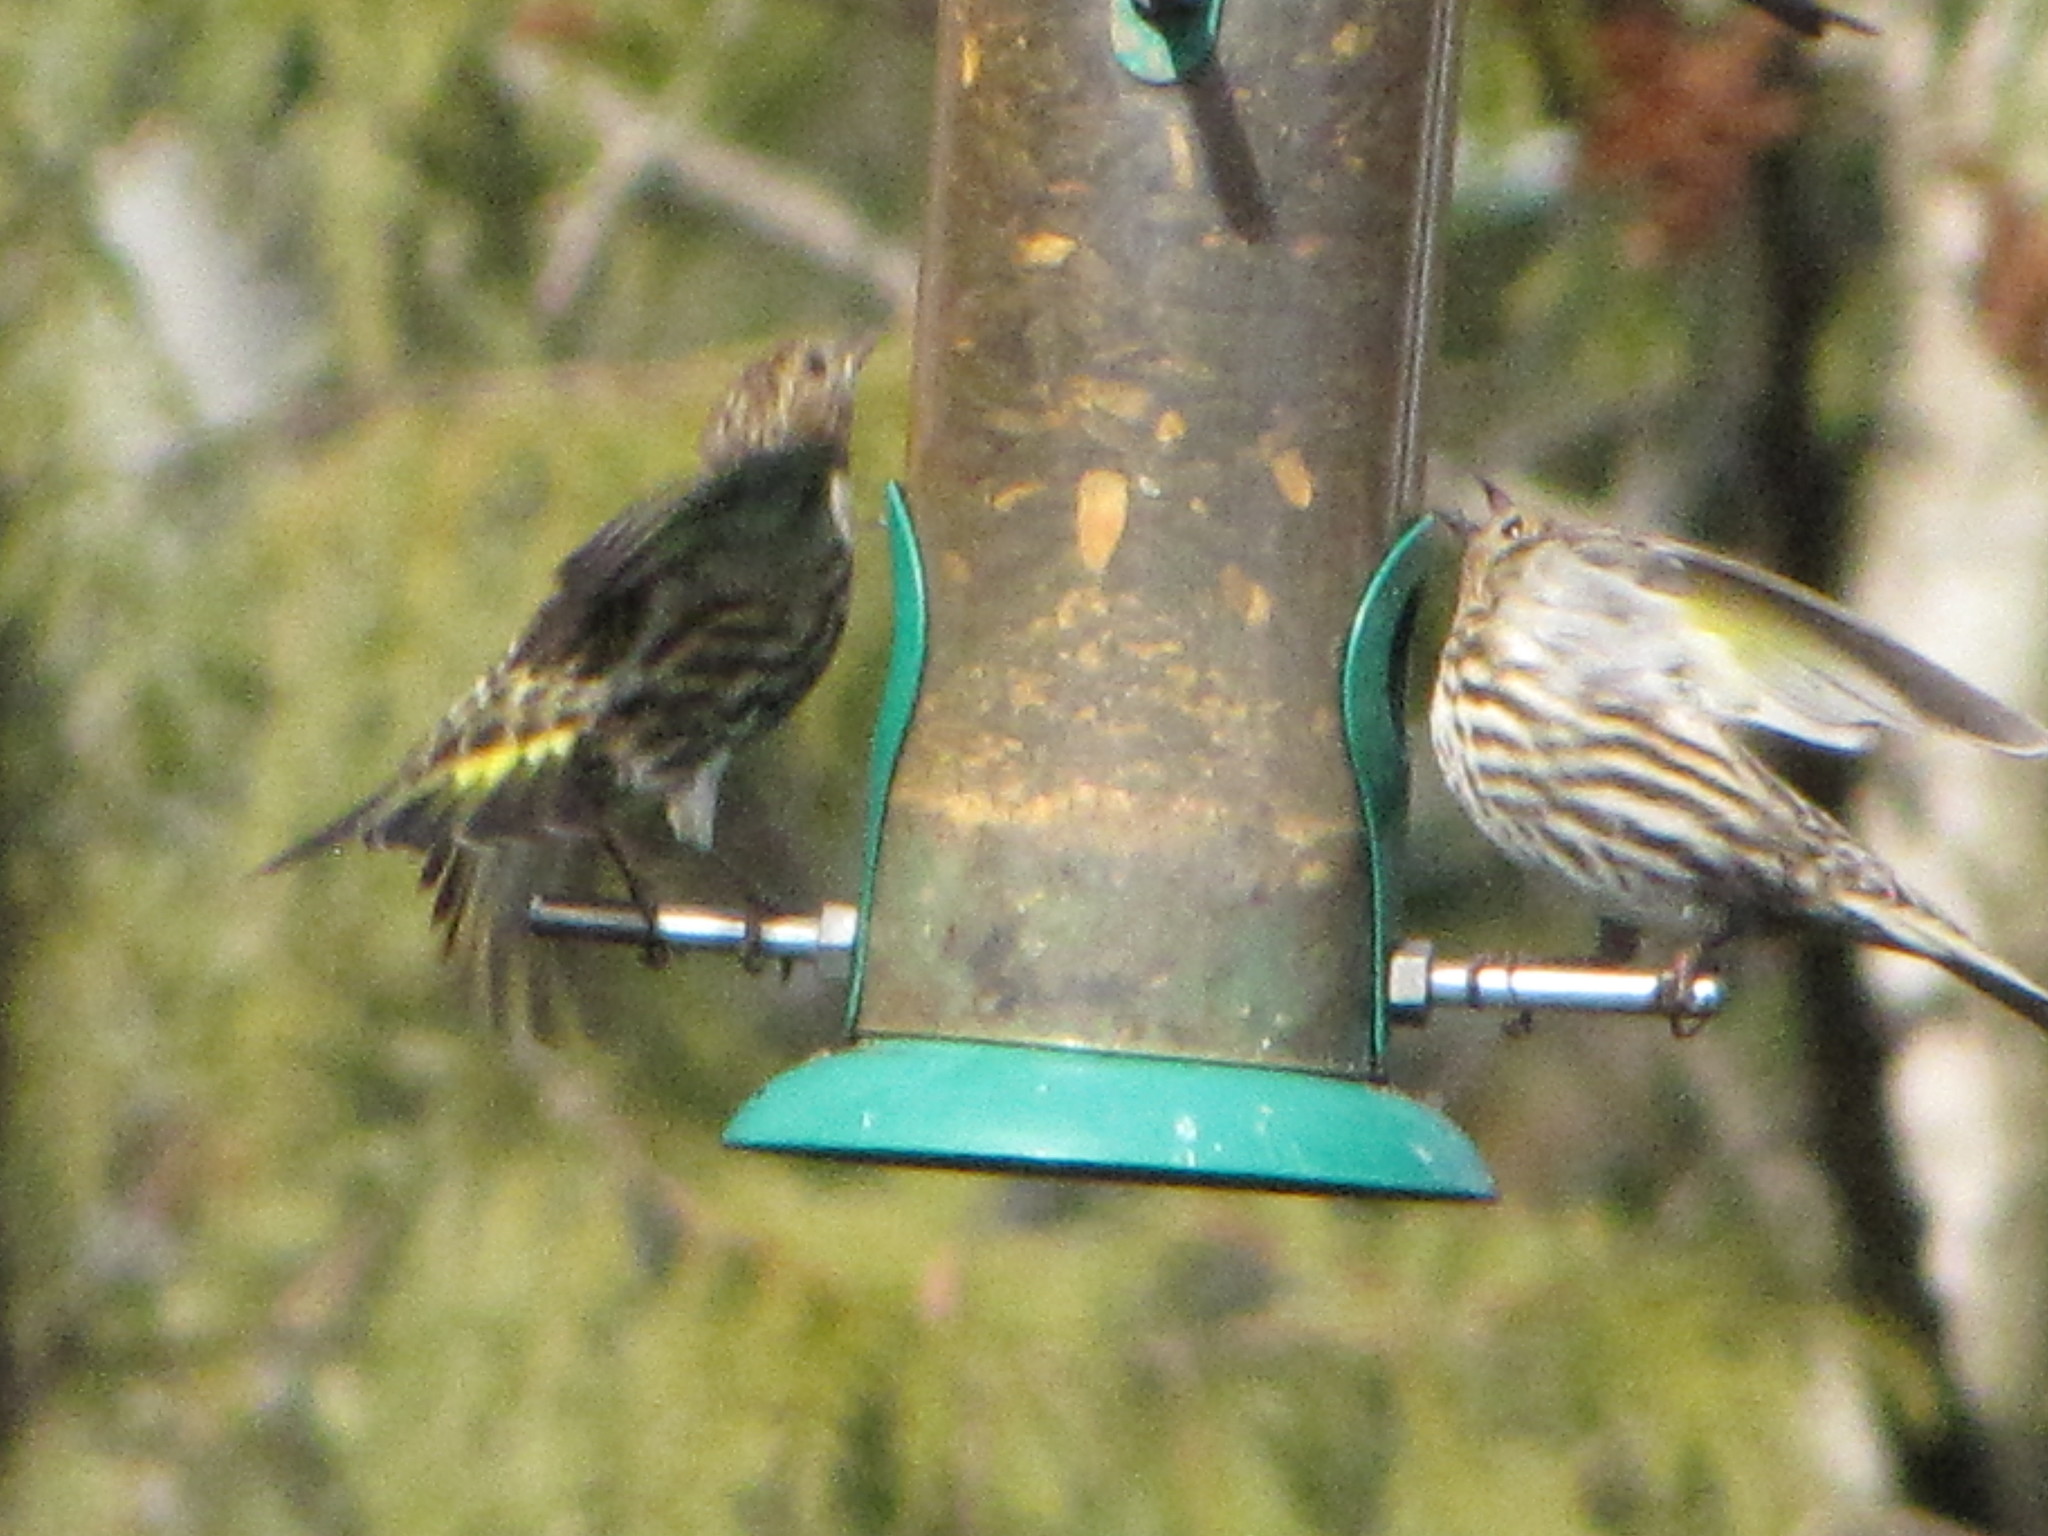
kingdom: Animalia
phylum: Chordata
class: Aves
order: Passeriformes
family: Fringillidae
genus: Spinus
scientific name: Spinus pinus
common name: Pine siskin
